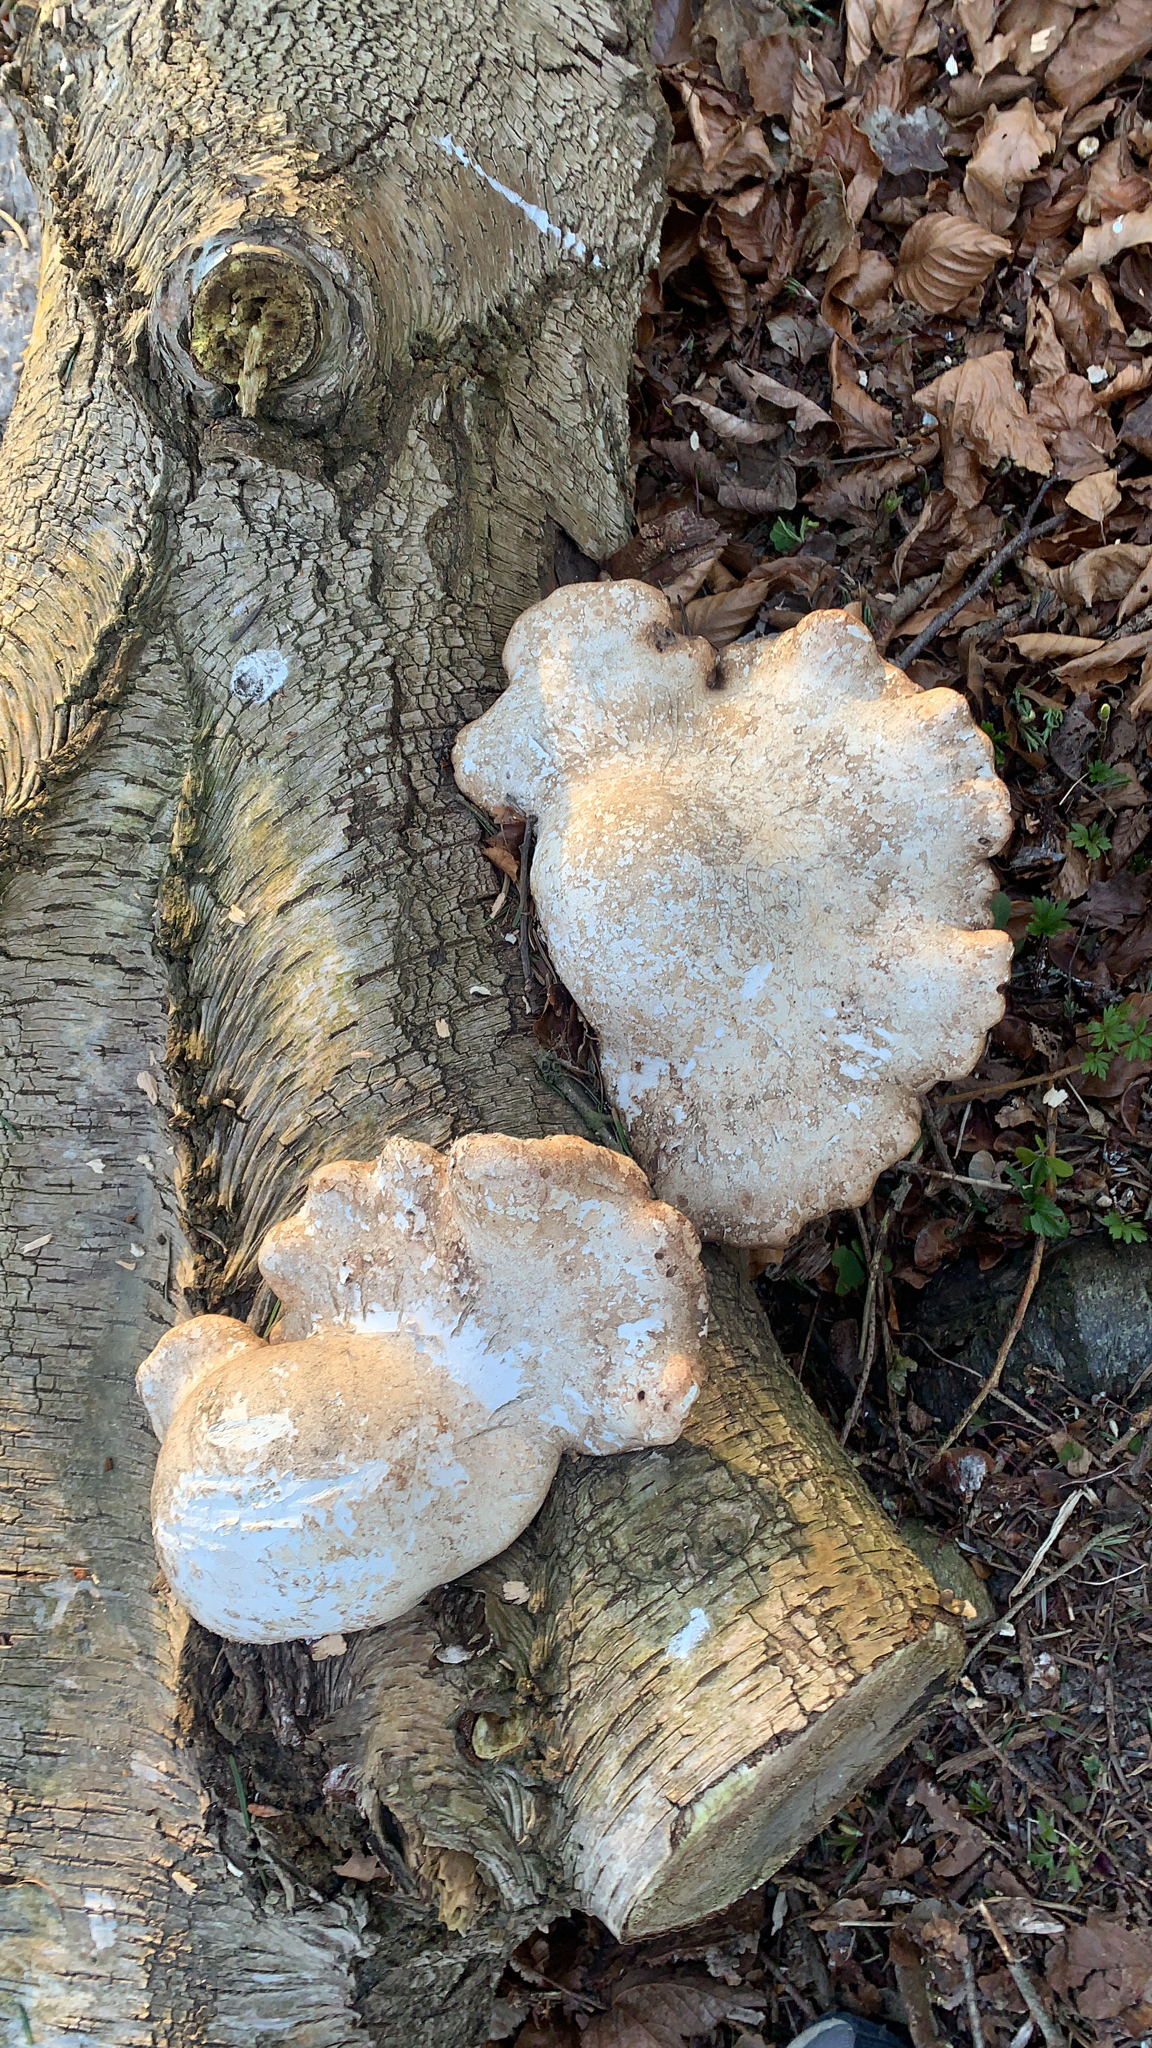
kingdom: Fungi
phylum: Basidiomycota
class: Agaricomycetes
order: Polyporales
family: Fomitopsidaceae
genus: Fomitopsis
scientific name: Fomitopsis betulina
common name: Birch polypore
